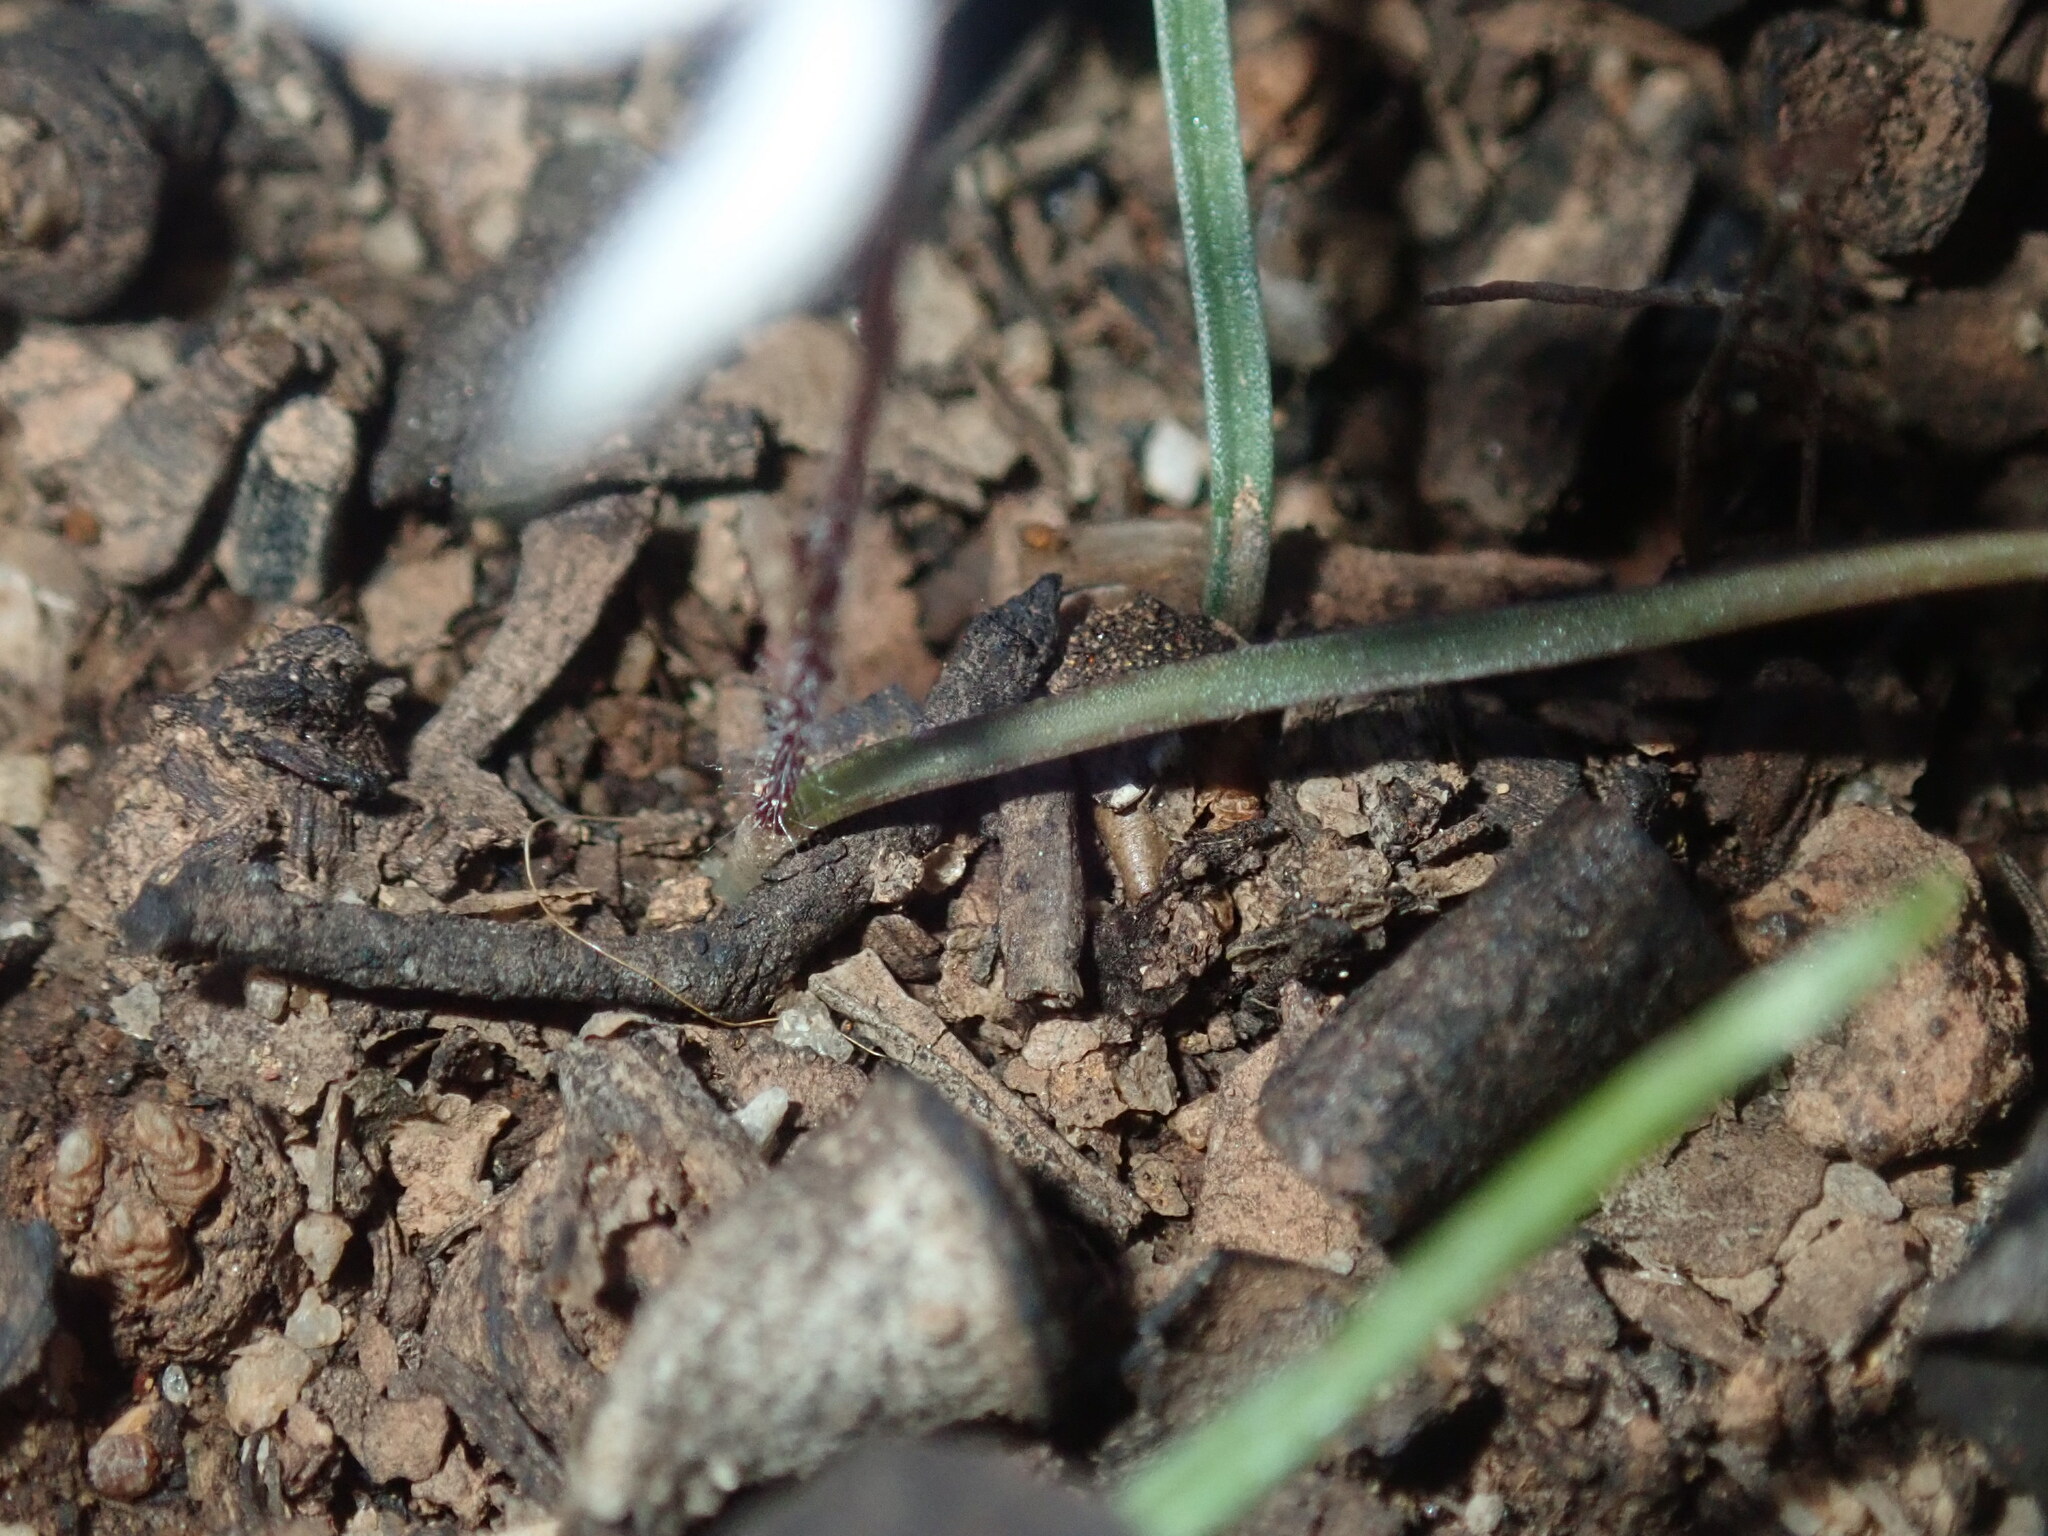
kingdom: Plantae
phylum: Tracheophyta
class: Liliopsida
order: Asparagales
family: Orchidaceae
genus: Caladenia
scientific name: Caladenia saccharata
